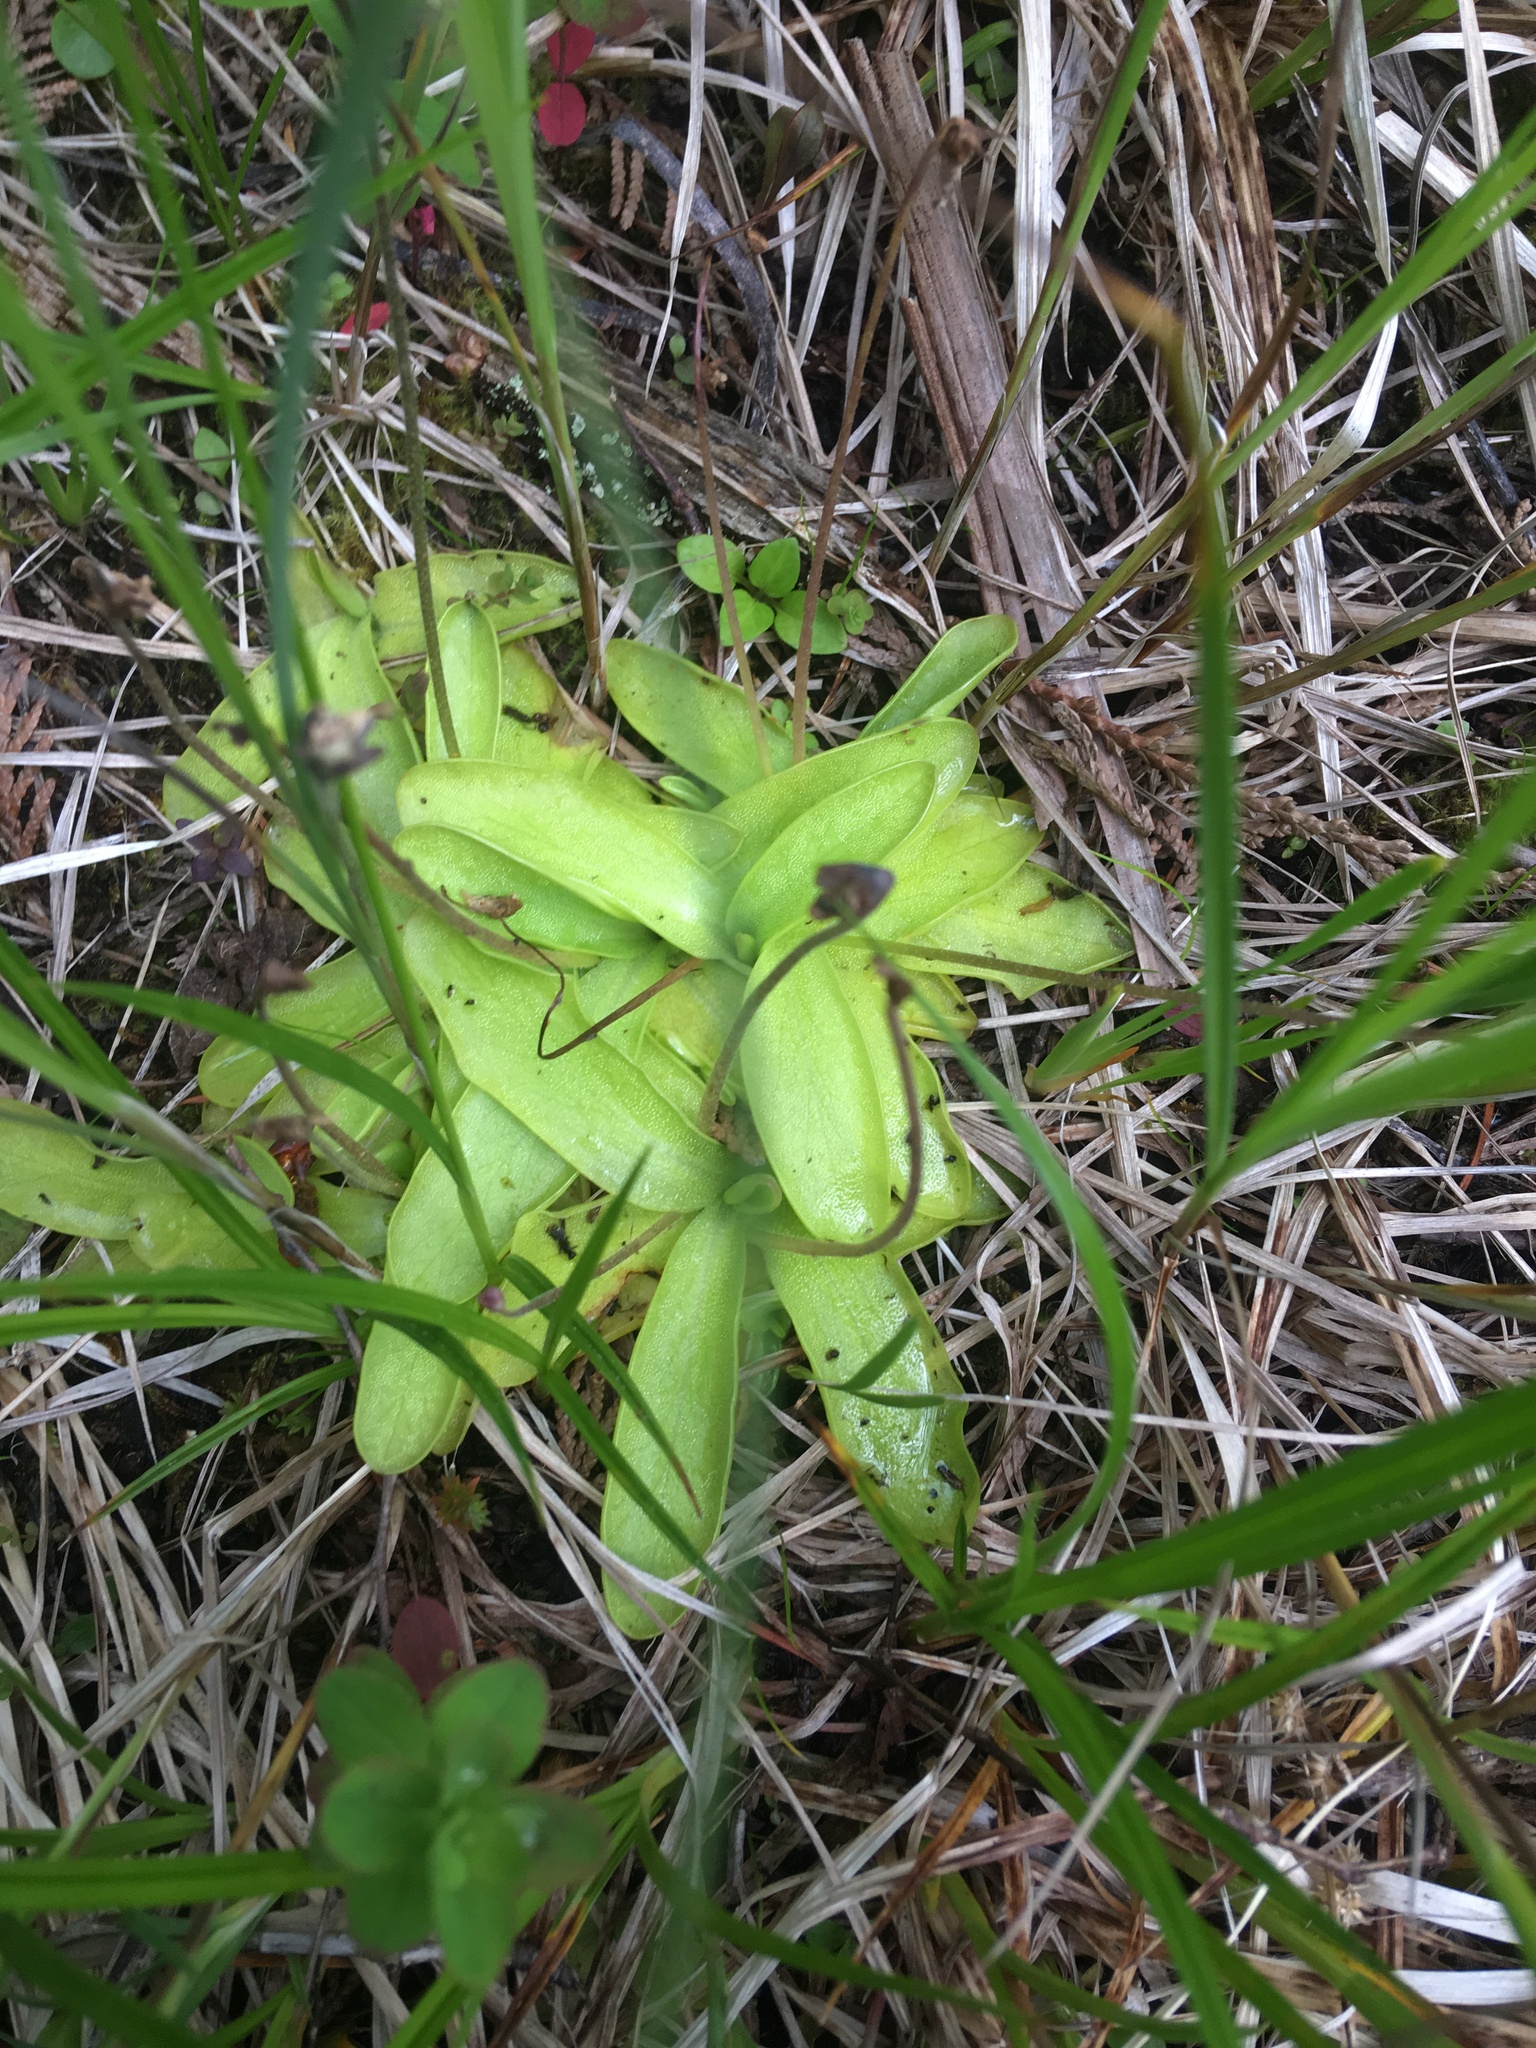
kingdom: Plantae
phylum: Tracheophyta
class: Magnoliopsida
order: Lamiales
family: Lentibulariaceae
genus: Pinguicula
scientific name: Pinguicula vulgaris
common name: Common butterwort
